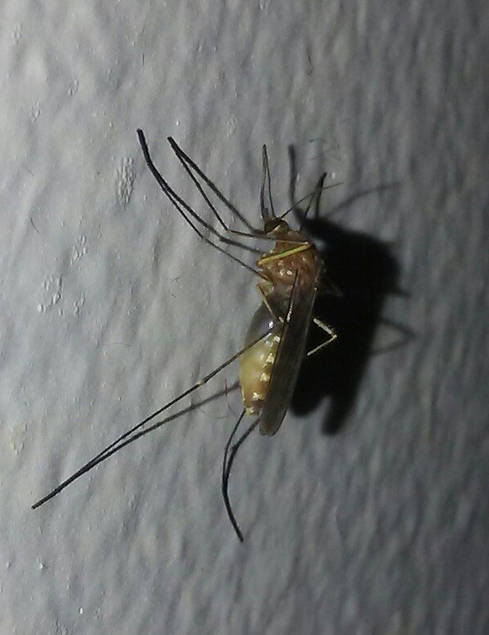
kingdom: Animalia
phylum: Arthropoda
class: Insecta
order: Diptera
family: Culicidae
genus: Culex
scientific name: Culex pipiens
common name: Mosquito
